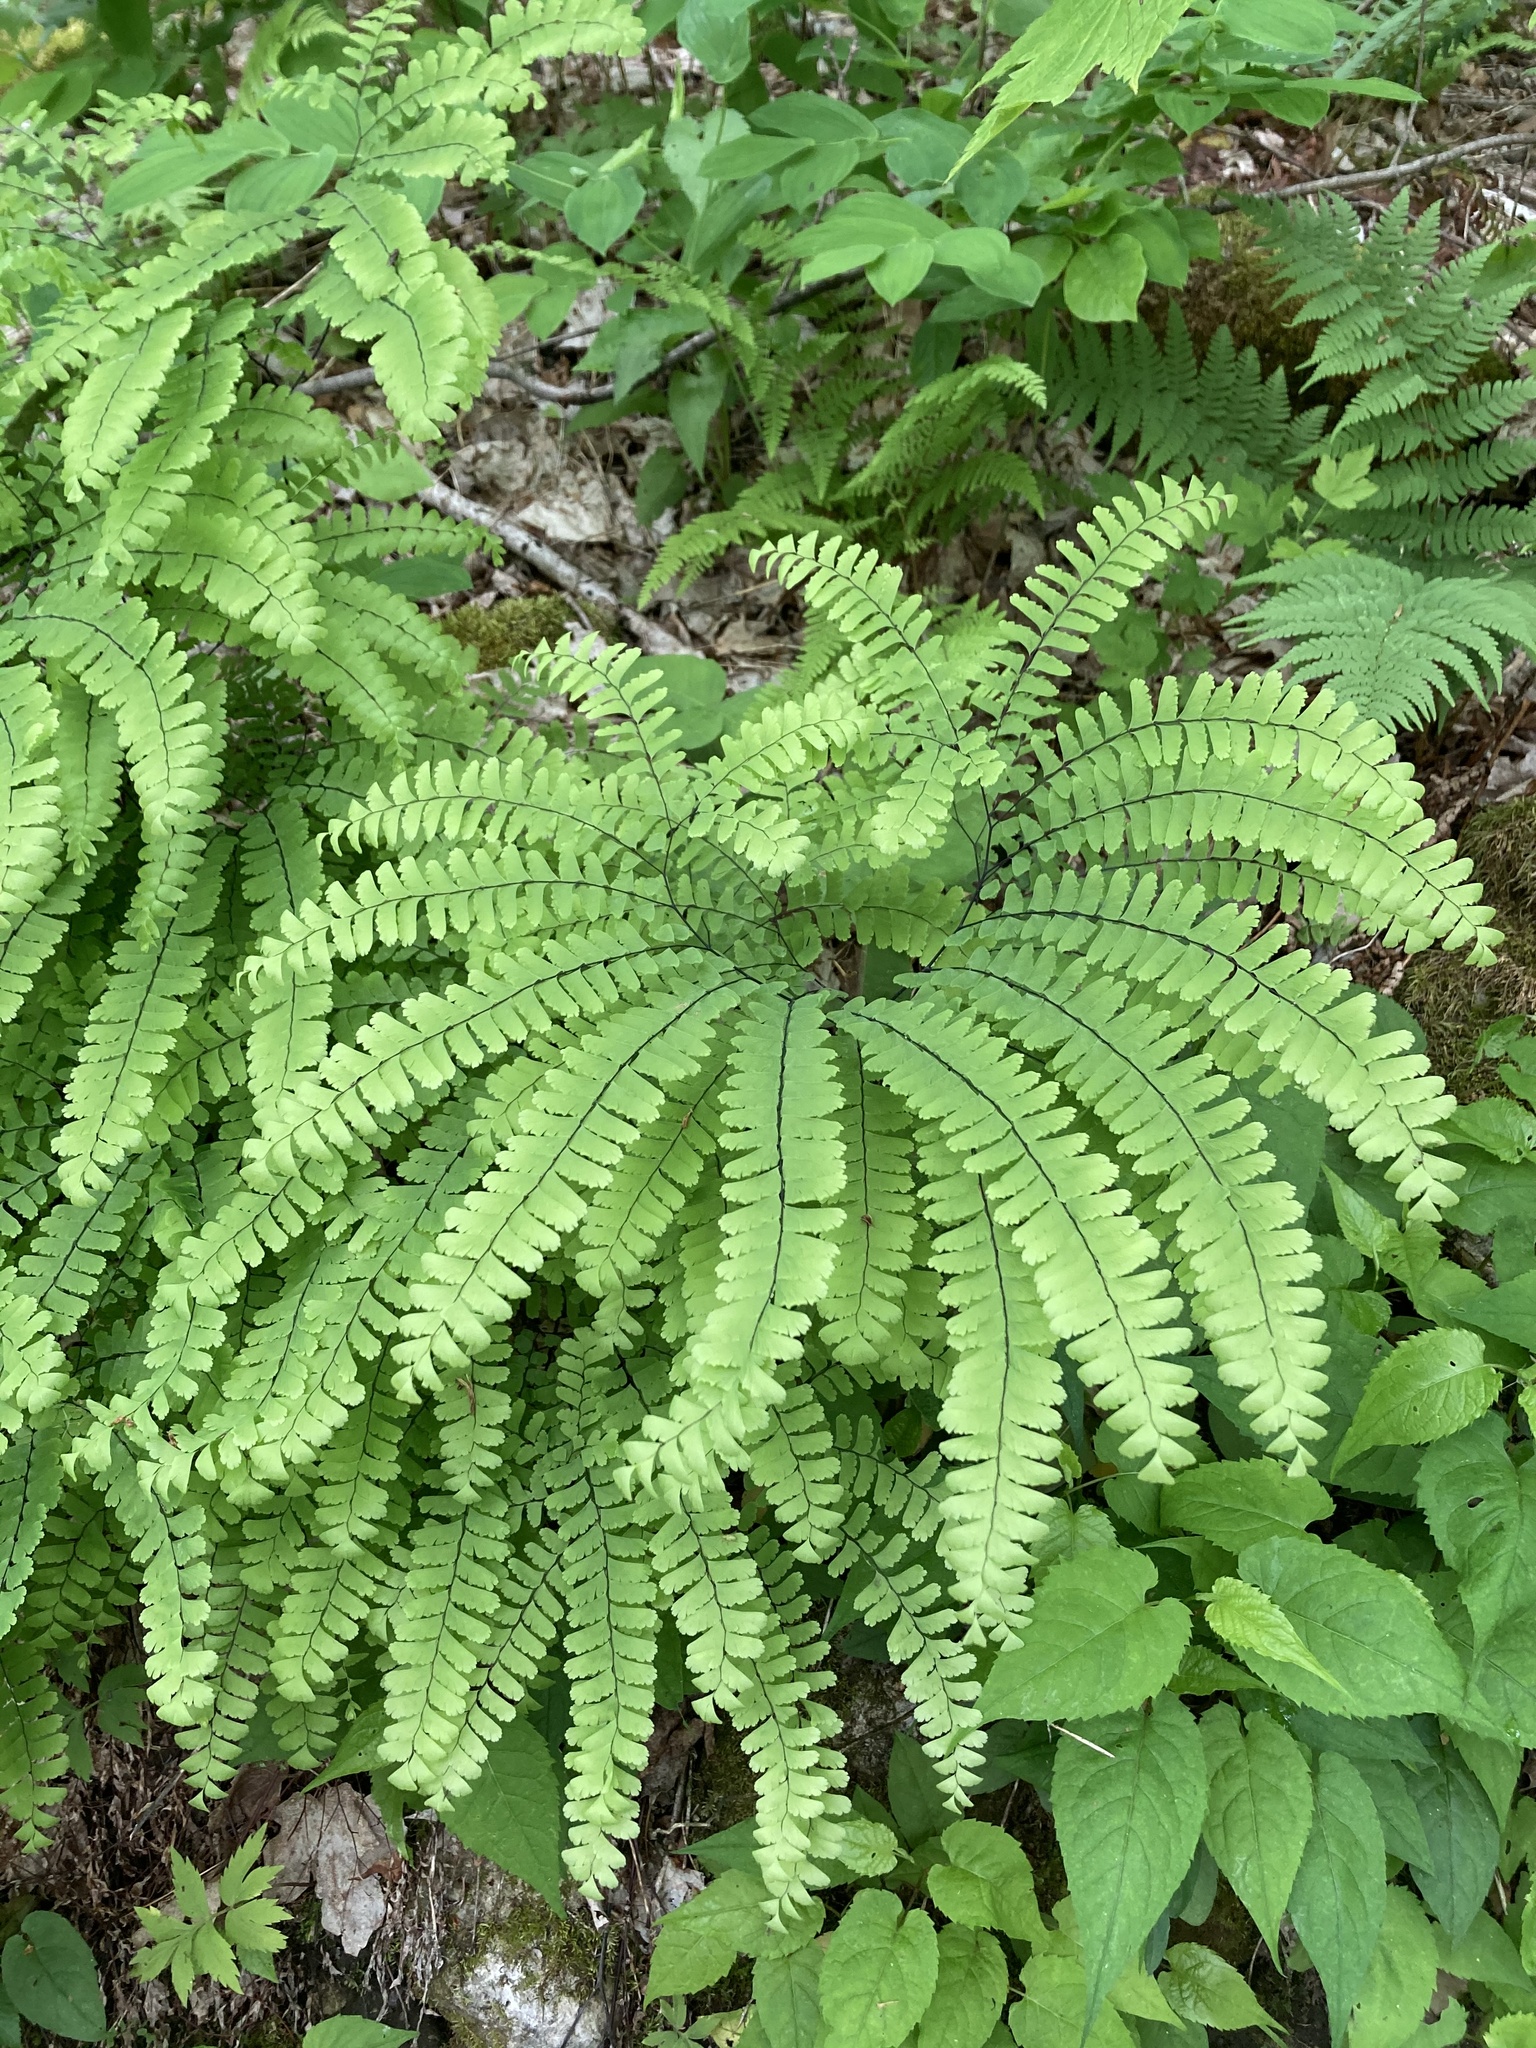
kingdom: Plantae
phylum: Tracheophyta
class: Polypodiopsida
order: Polypodiales
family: Pteridaceae
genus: Adiantum
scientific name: Adiantum pedatum
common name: Five-finger fern
